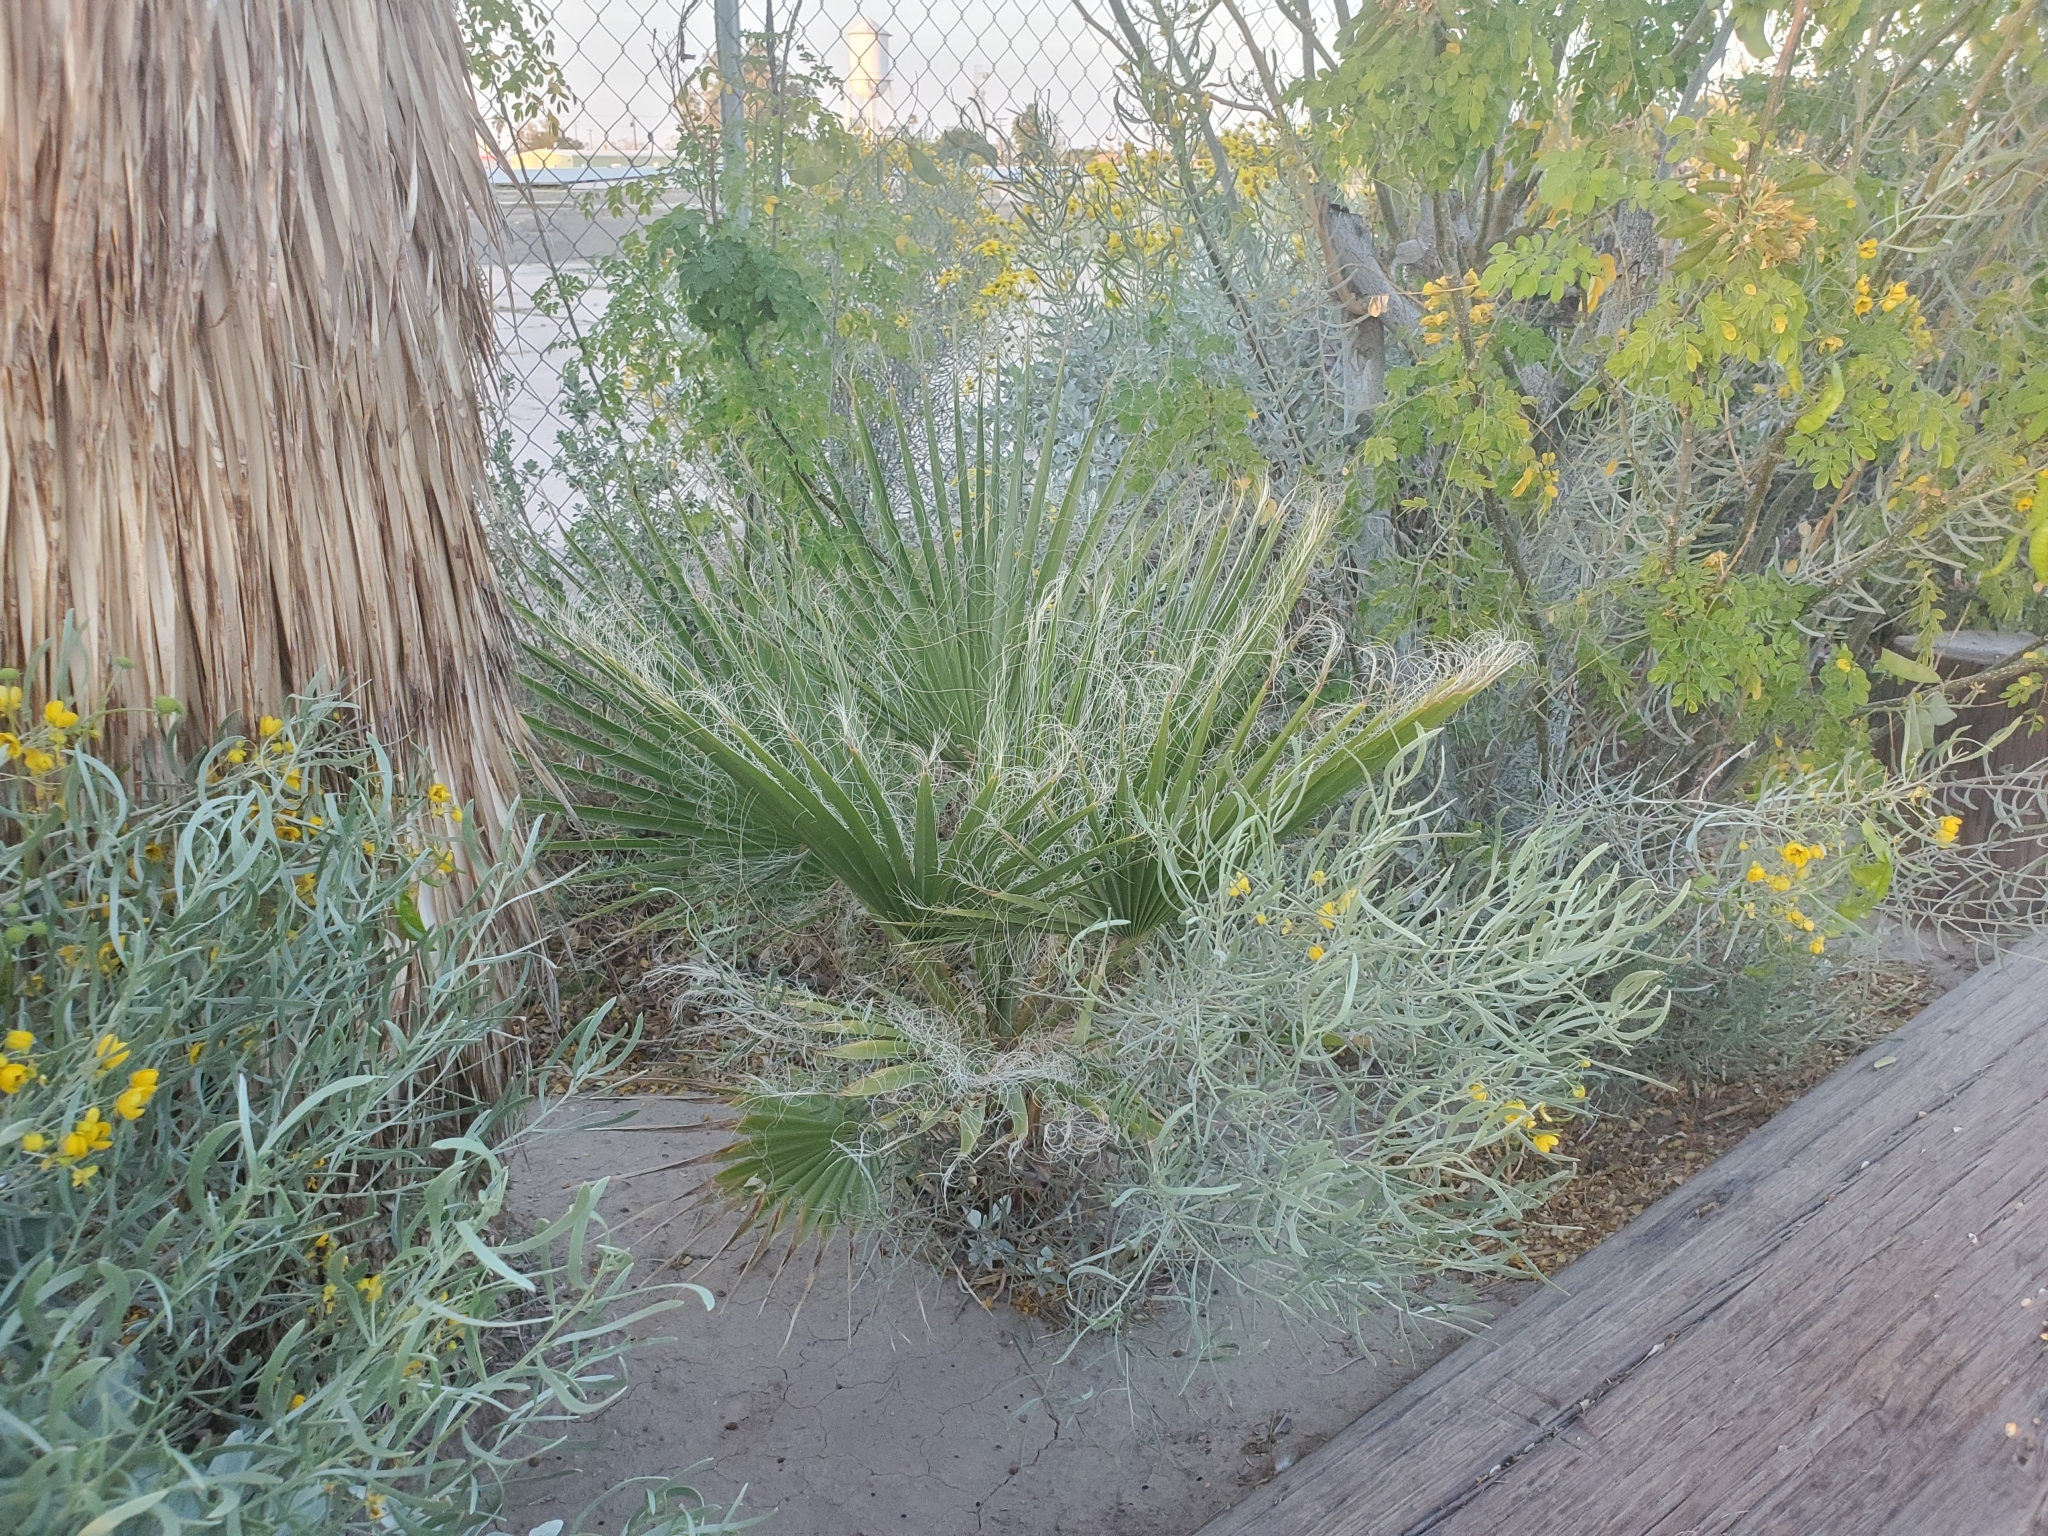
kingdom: Plantae
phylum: Tracheophyta
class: Liliopsida
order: Arecales
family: Arecaceae
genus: Washingtonia
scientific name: Washingtonia filifera
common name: California fan palm
